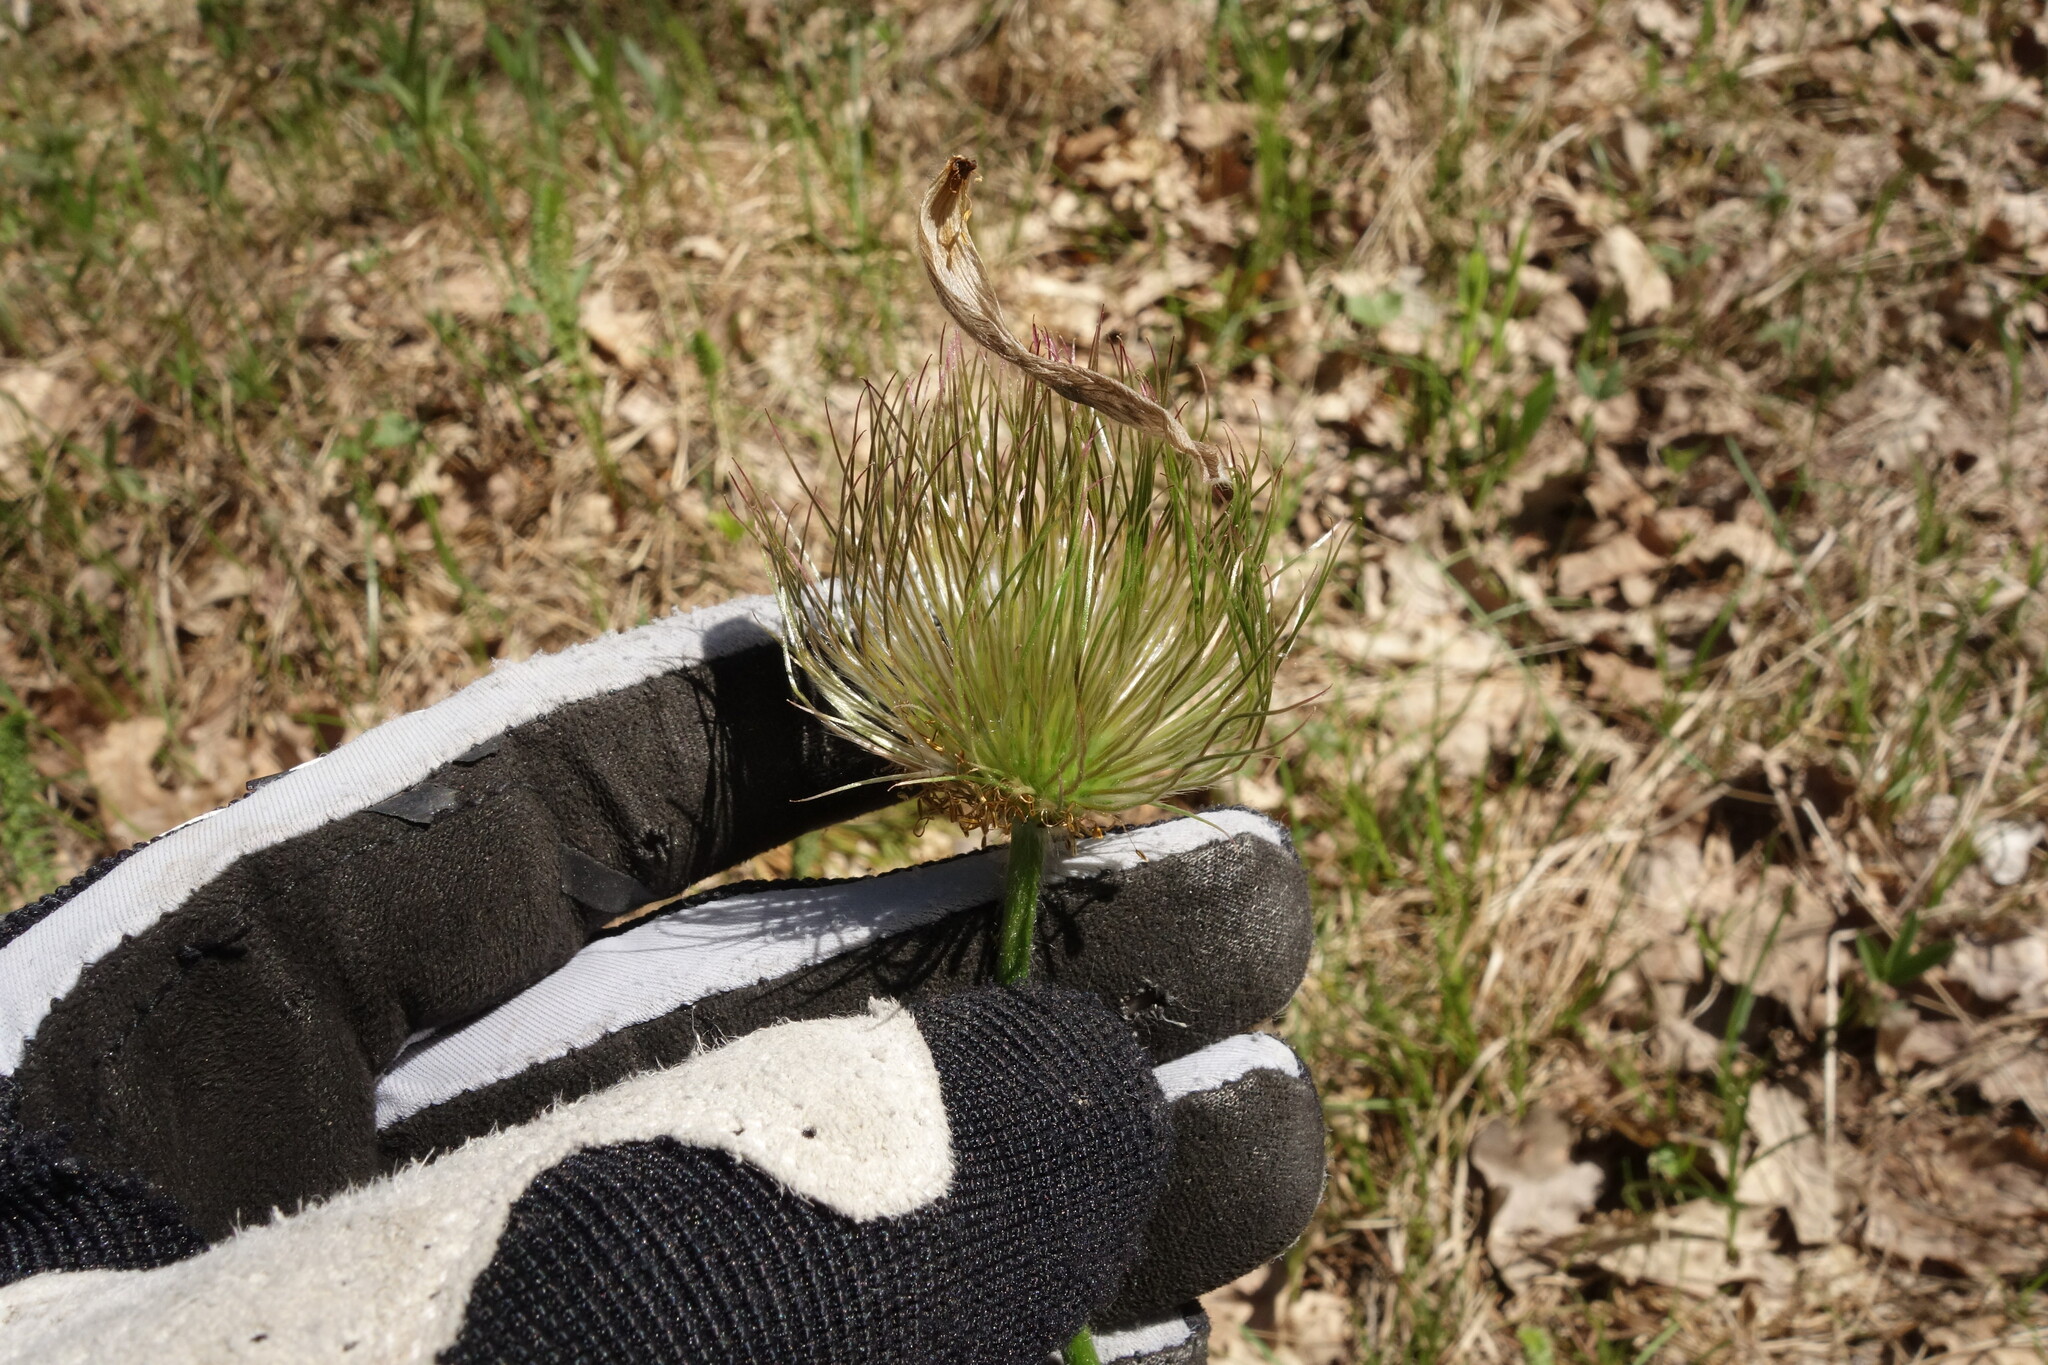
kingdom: Plantae
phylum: Tracheophyta
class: Magnoliopsida
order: Ranunculales
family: Ranunculaceae
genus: Pulsatilla
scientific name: Pulsatilla patens
